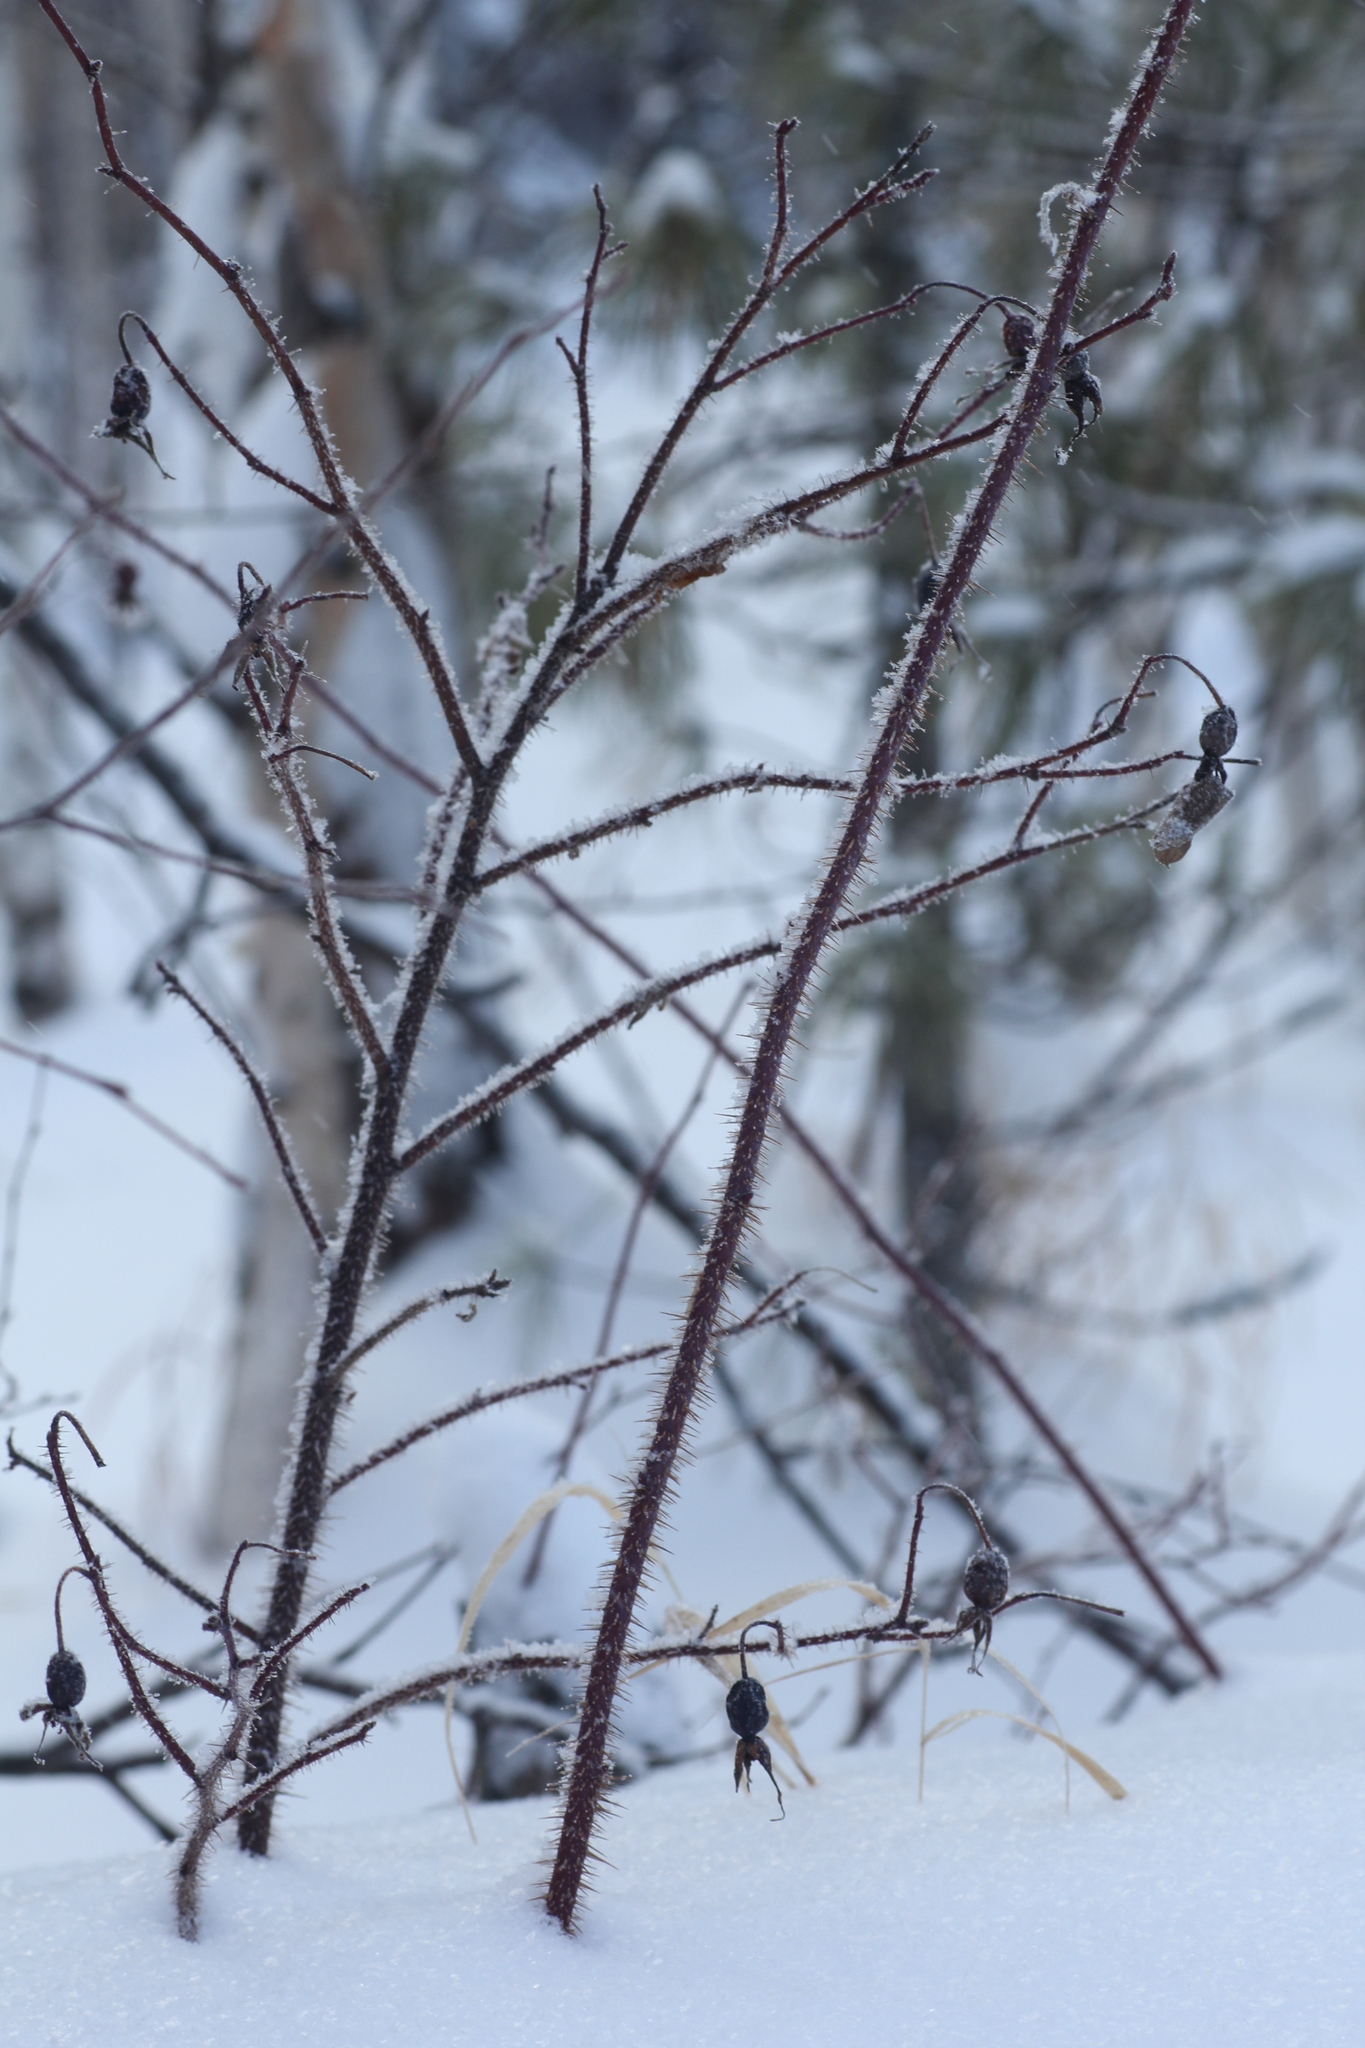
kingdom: Plantae
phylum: Tracheophyta
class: Magnoliopsida
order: Rosales
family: Rosaceae
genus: Rosa
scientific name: Rosa acicularis
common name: Prickly rose
